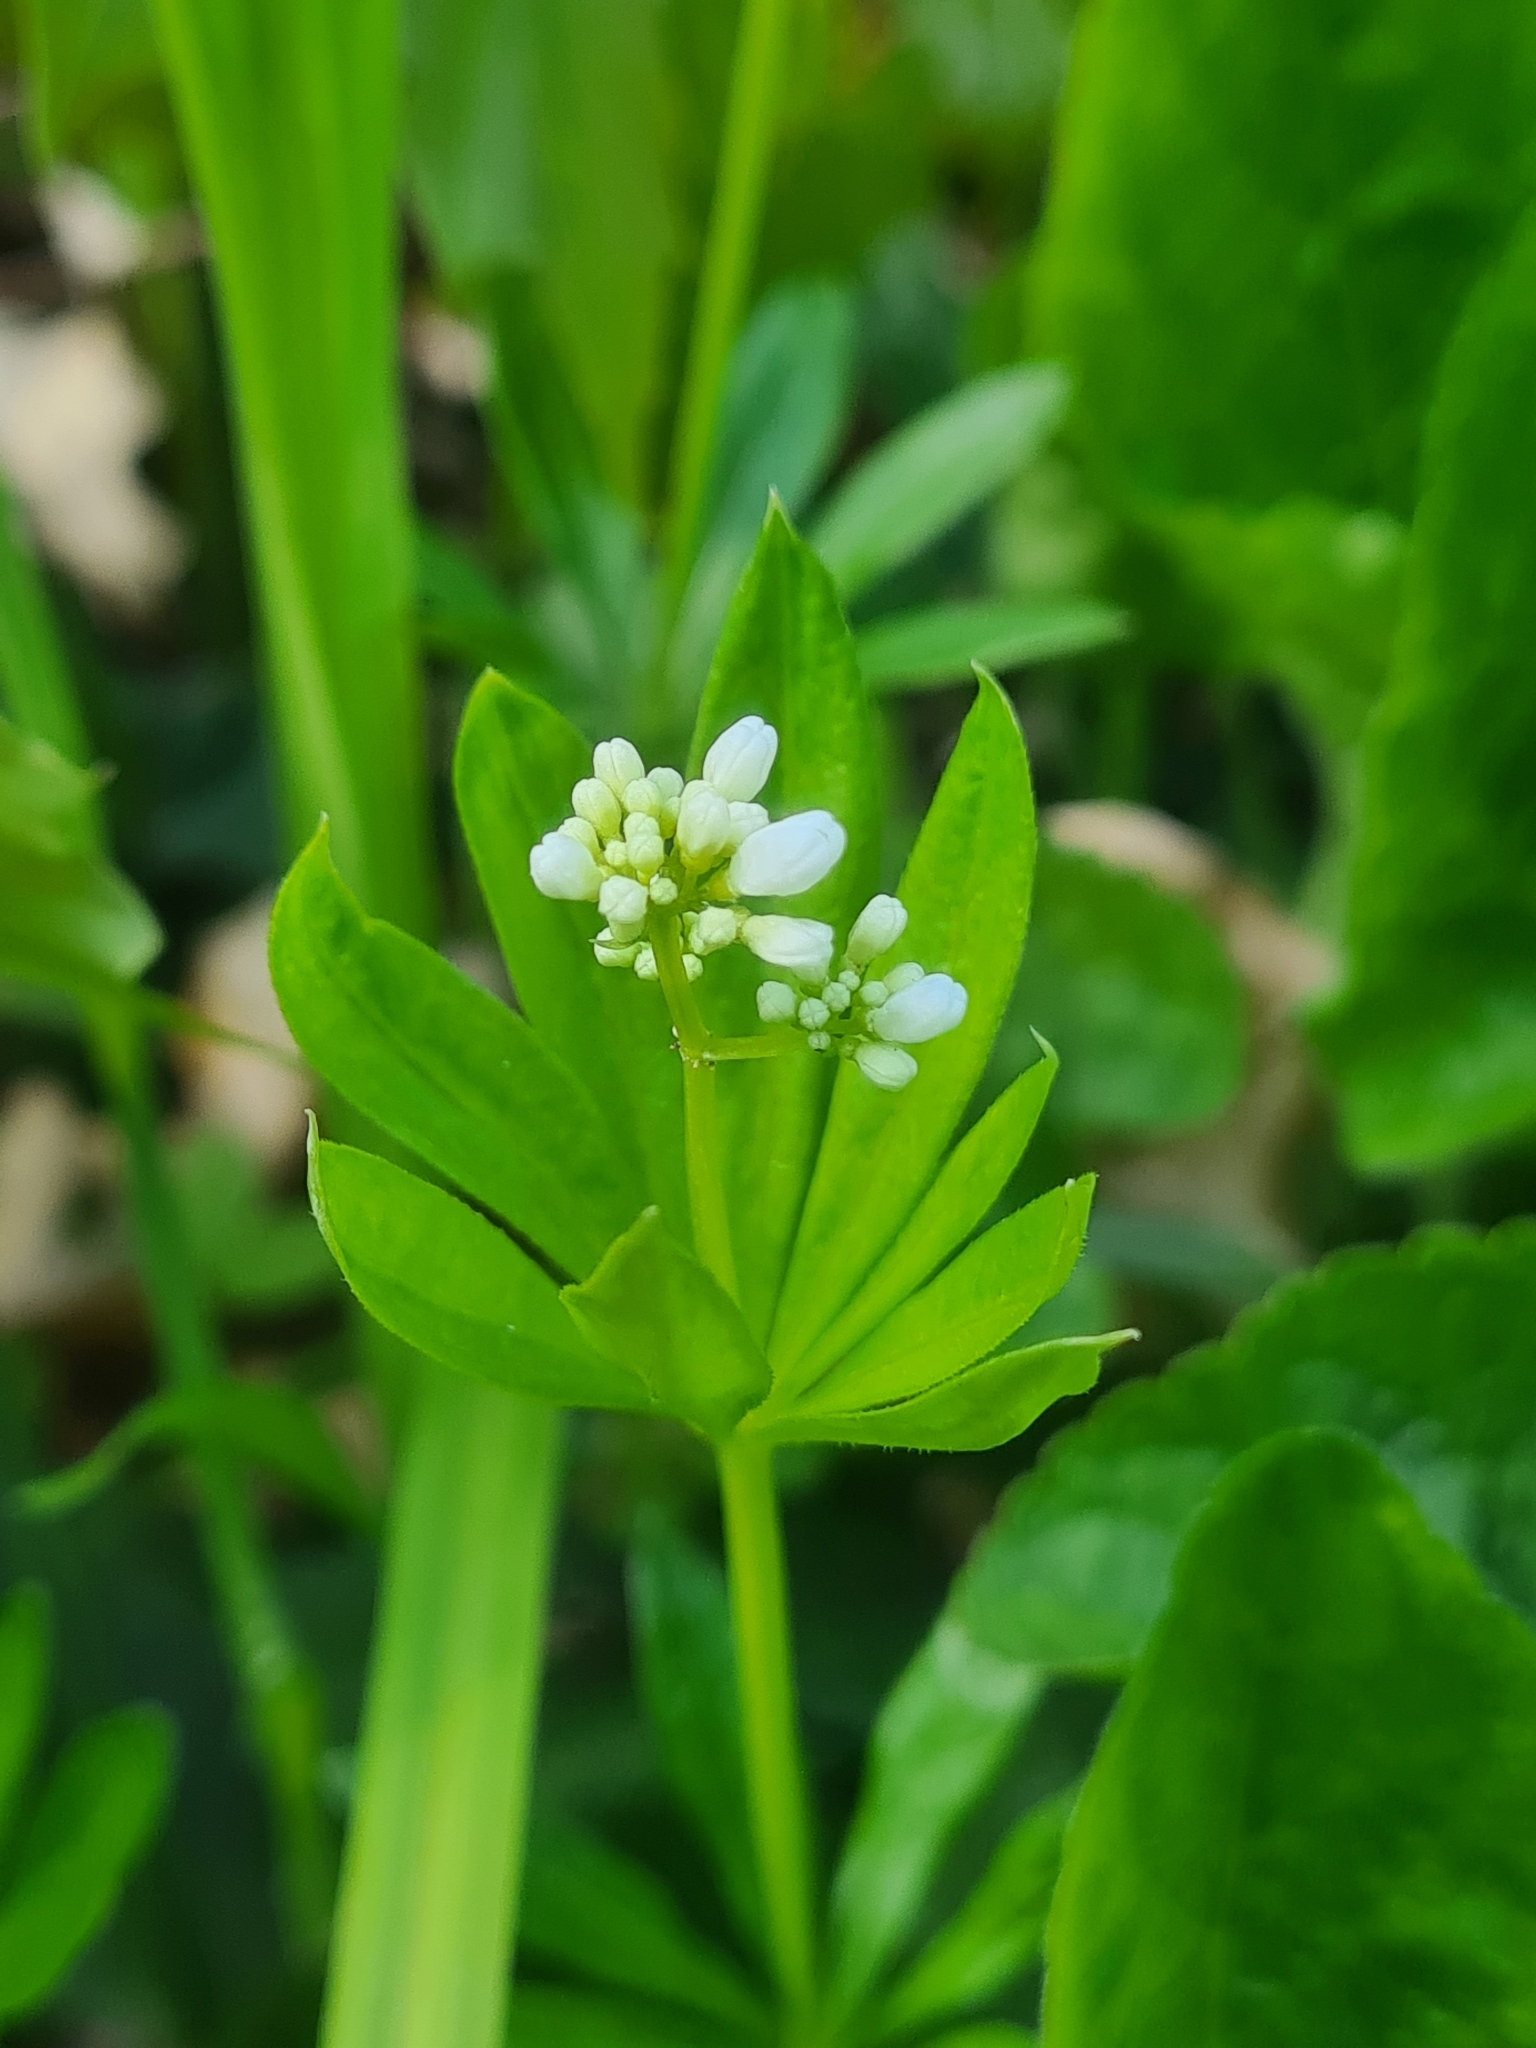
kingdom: Plantae
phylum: Tracheophyta
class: Magnoliopsida
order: Gentianales
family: Rubiaceae
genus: Galium
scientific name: Galium odoratum
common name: Sweet woodruff
